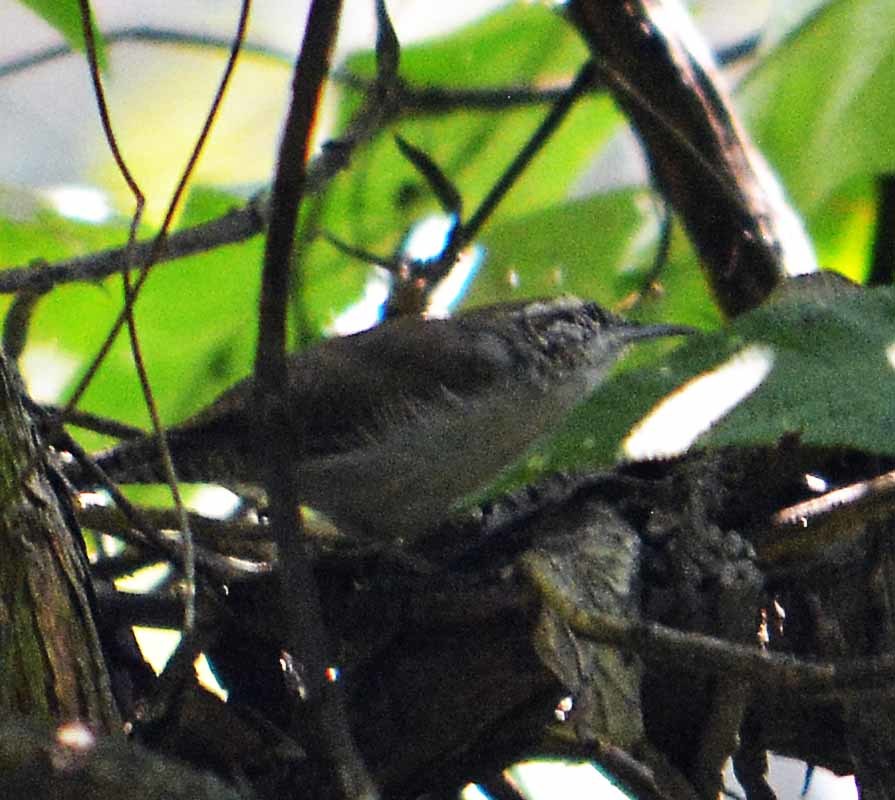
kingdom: Animalia
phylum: Chordata
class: Aves
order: Passeriformes
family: Troglodytidae
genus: Thryomanes
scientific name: Thryomanes bewickii
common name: Bewick's wren
